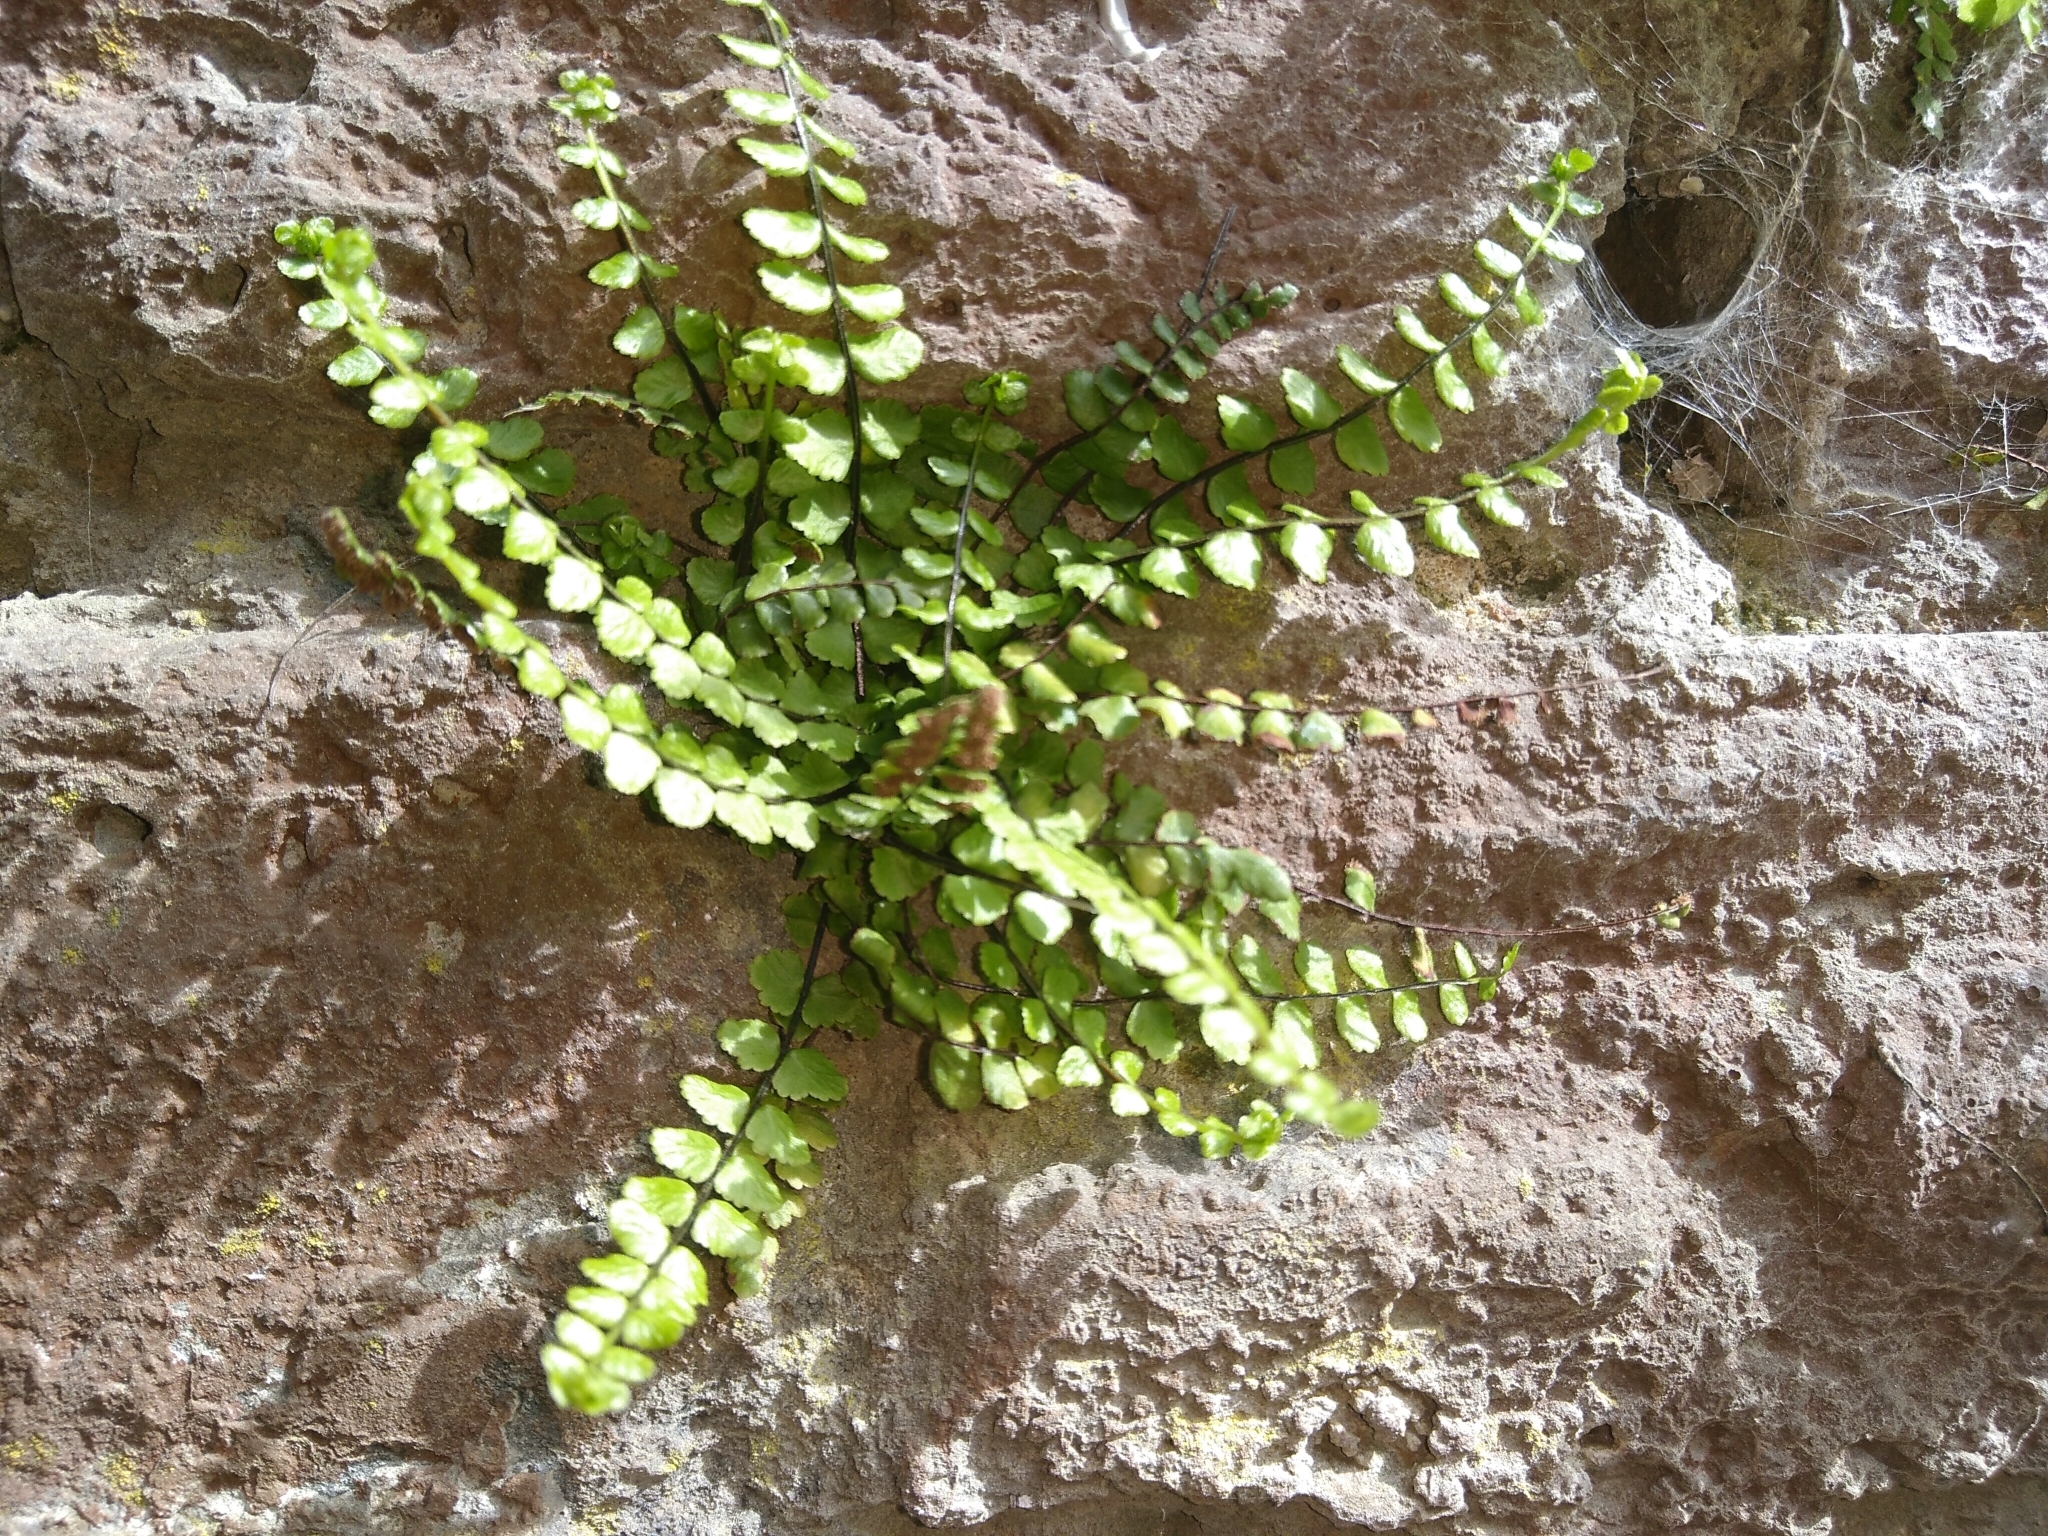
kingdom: Plantae
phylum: Tracheophyta
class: Polypodiopsida
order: Polypodiales
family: Aspleniaceae
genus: Asplenium
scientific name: Asplenium trichomanes
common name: Maidenhair spleenwort
